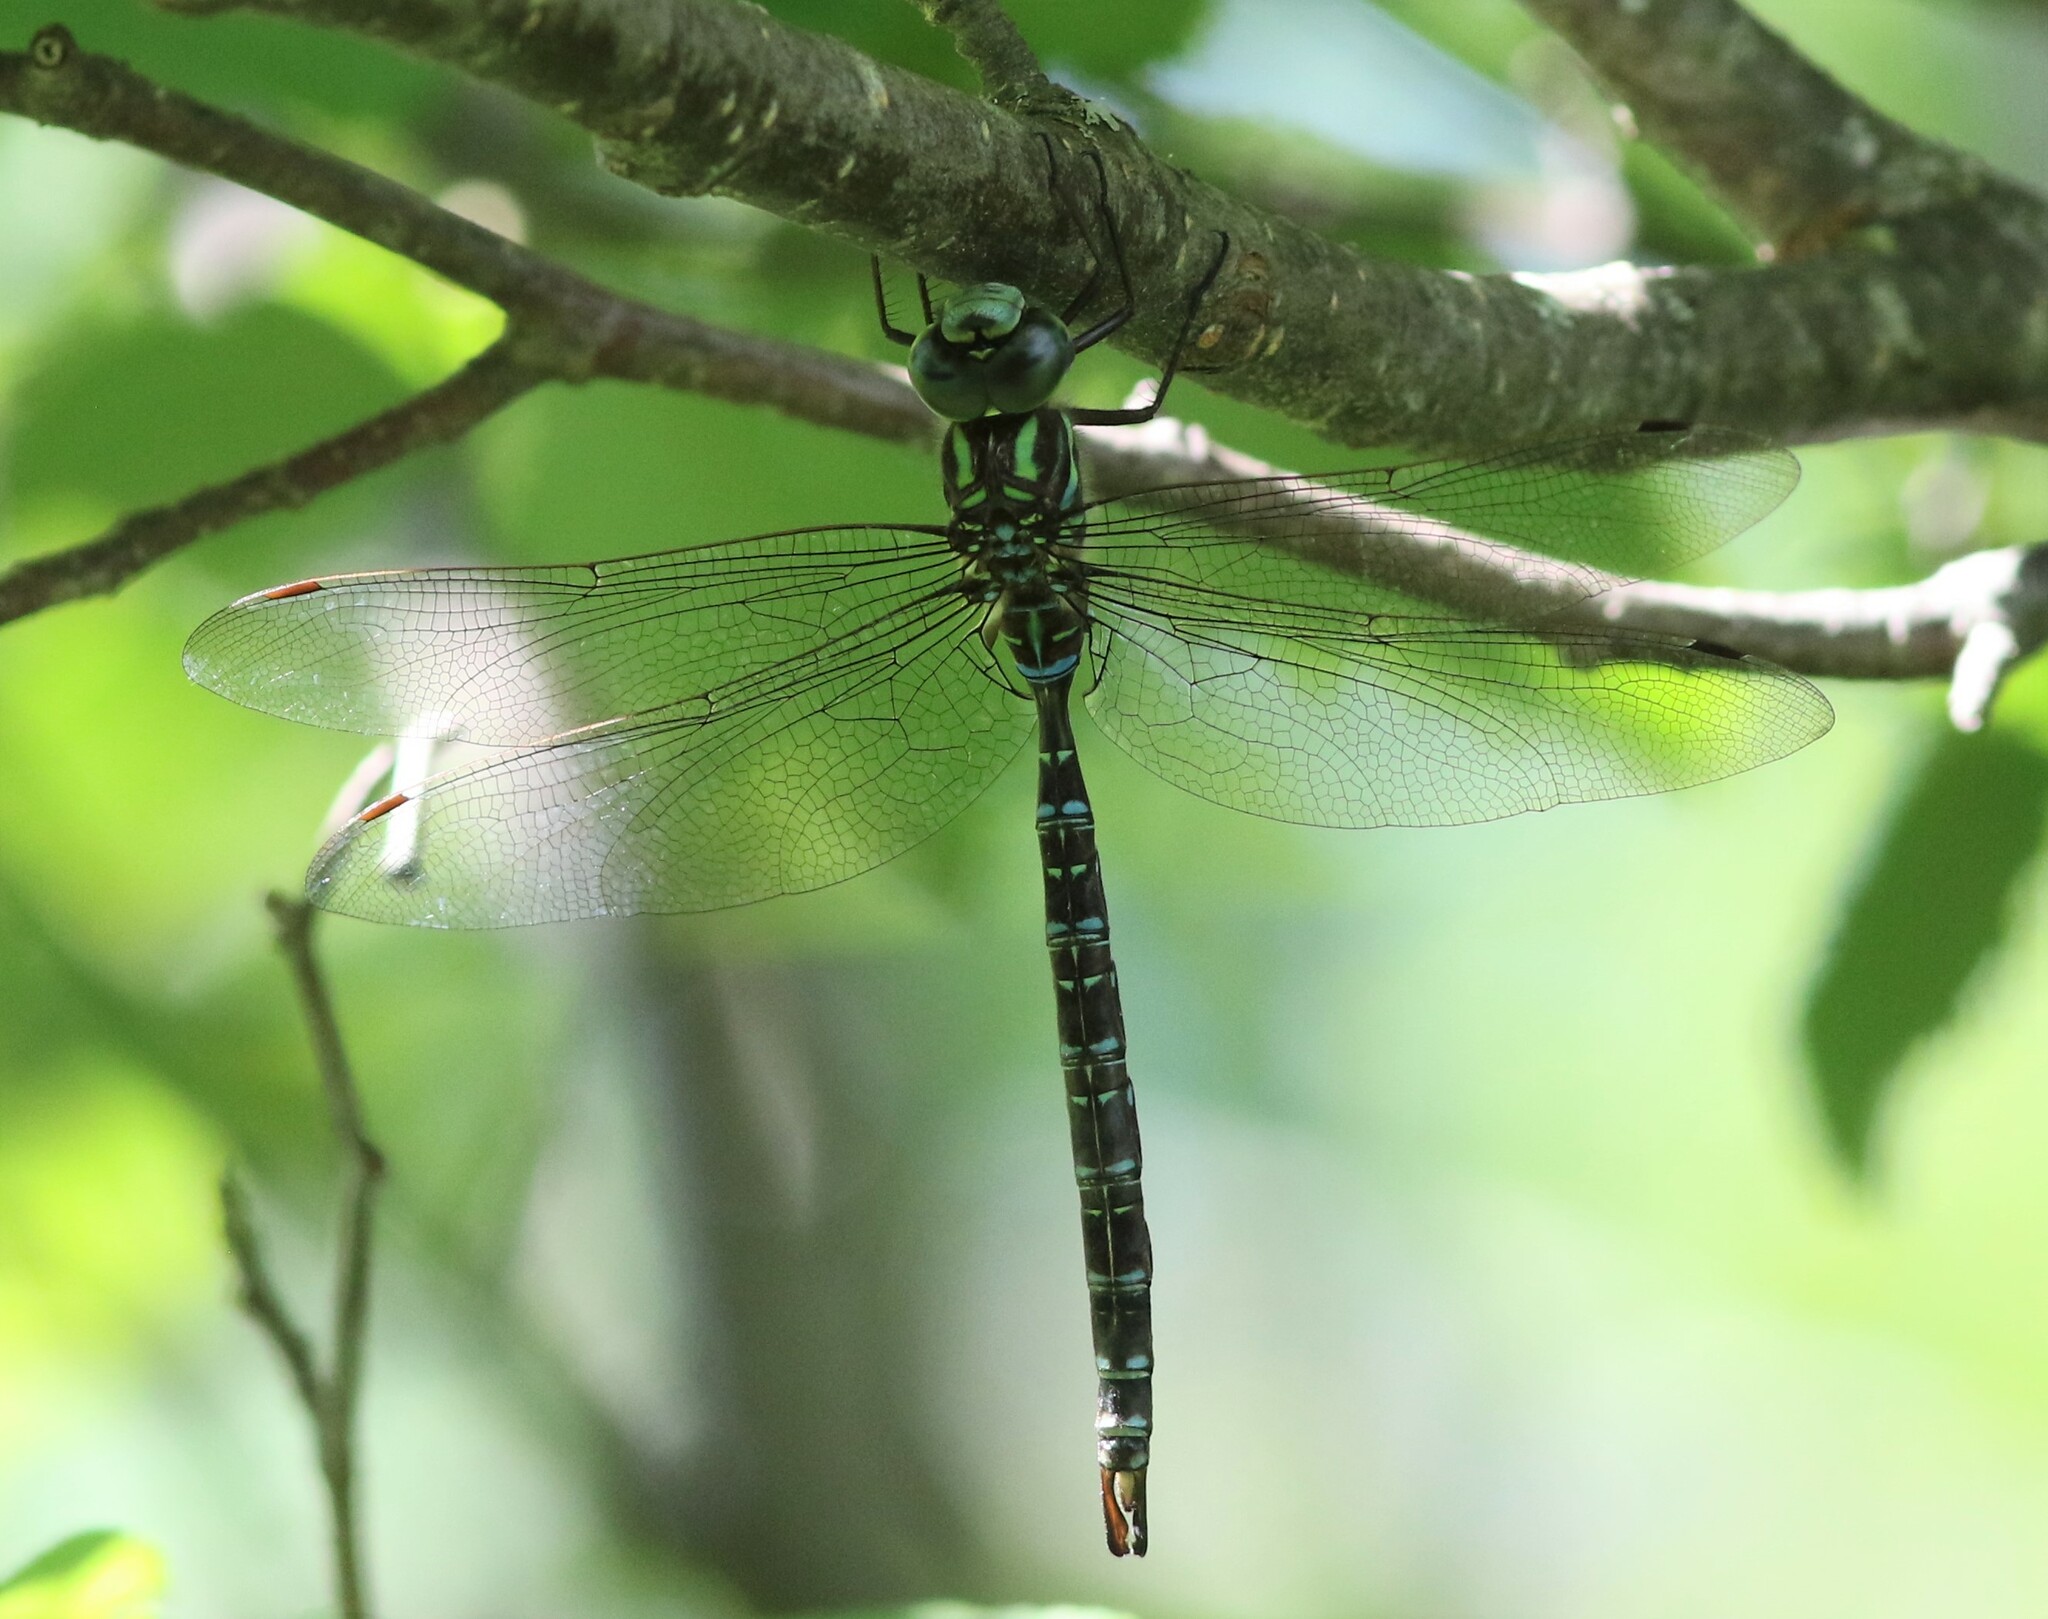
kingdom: Animalia
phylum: Arthropoda
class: Insecta
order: Odonata
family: Aeshnidae
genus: Aeshna
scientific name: Aeshna umbrosa
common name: Shadow darner
